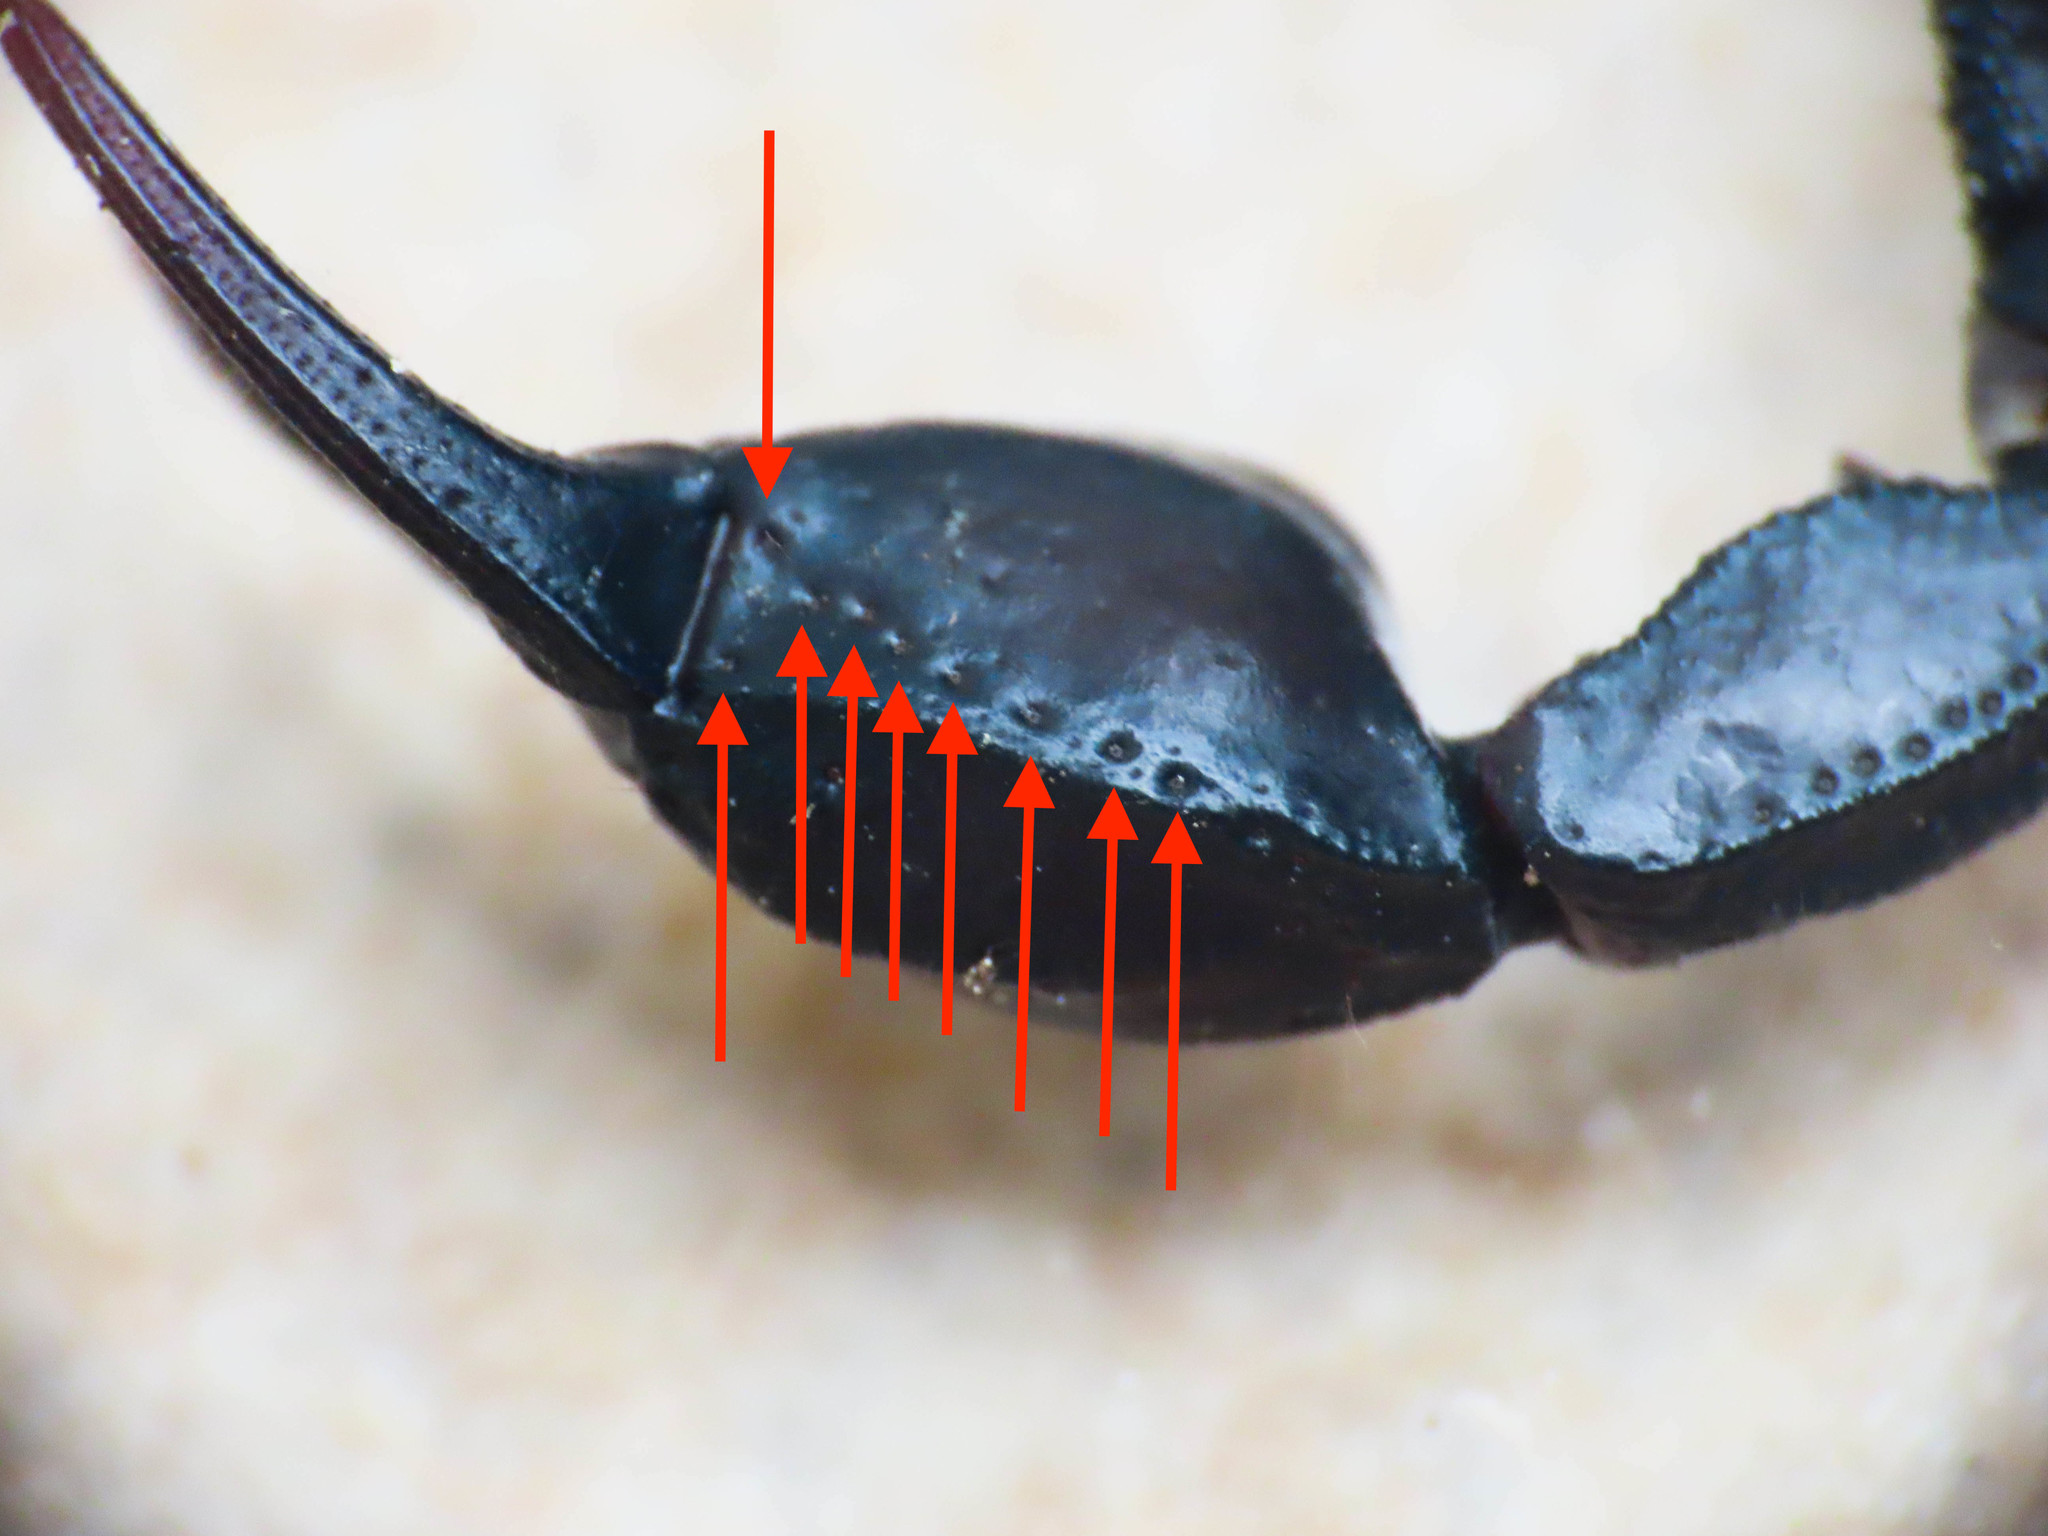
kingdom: Animalia
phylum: Arthropoda
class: Arachnida
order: Scorpiones
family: Euscorpiidae
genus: Euscorpius
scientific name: Euscorpius italicus
